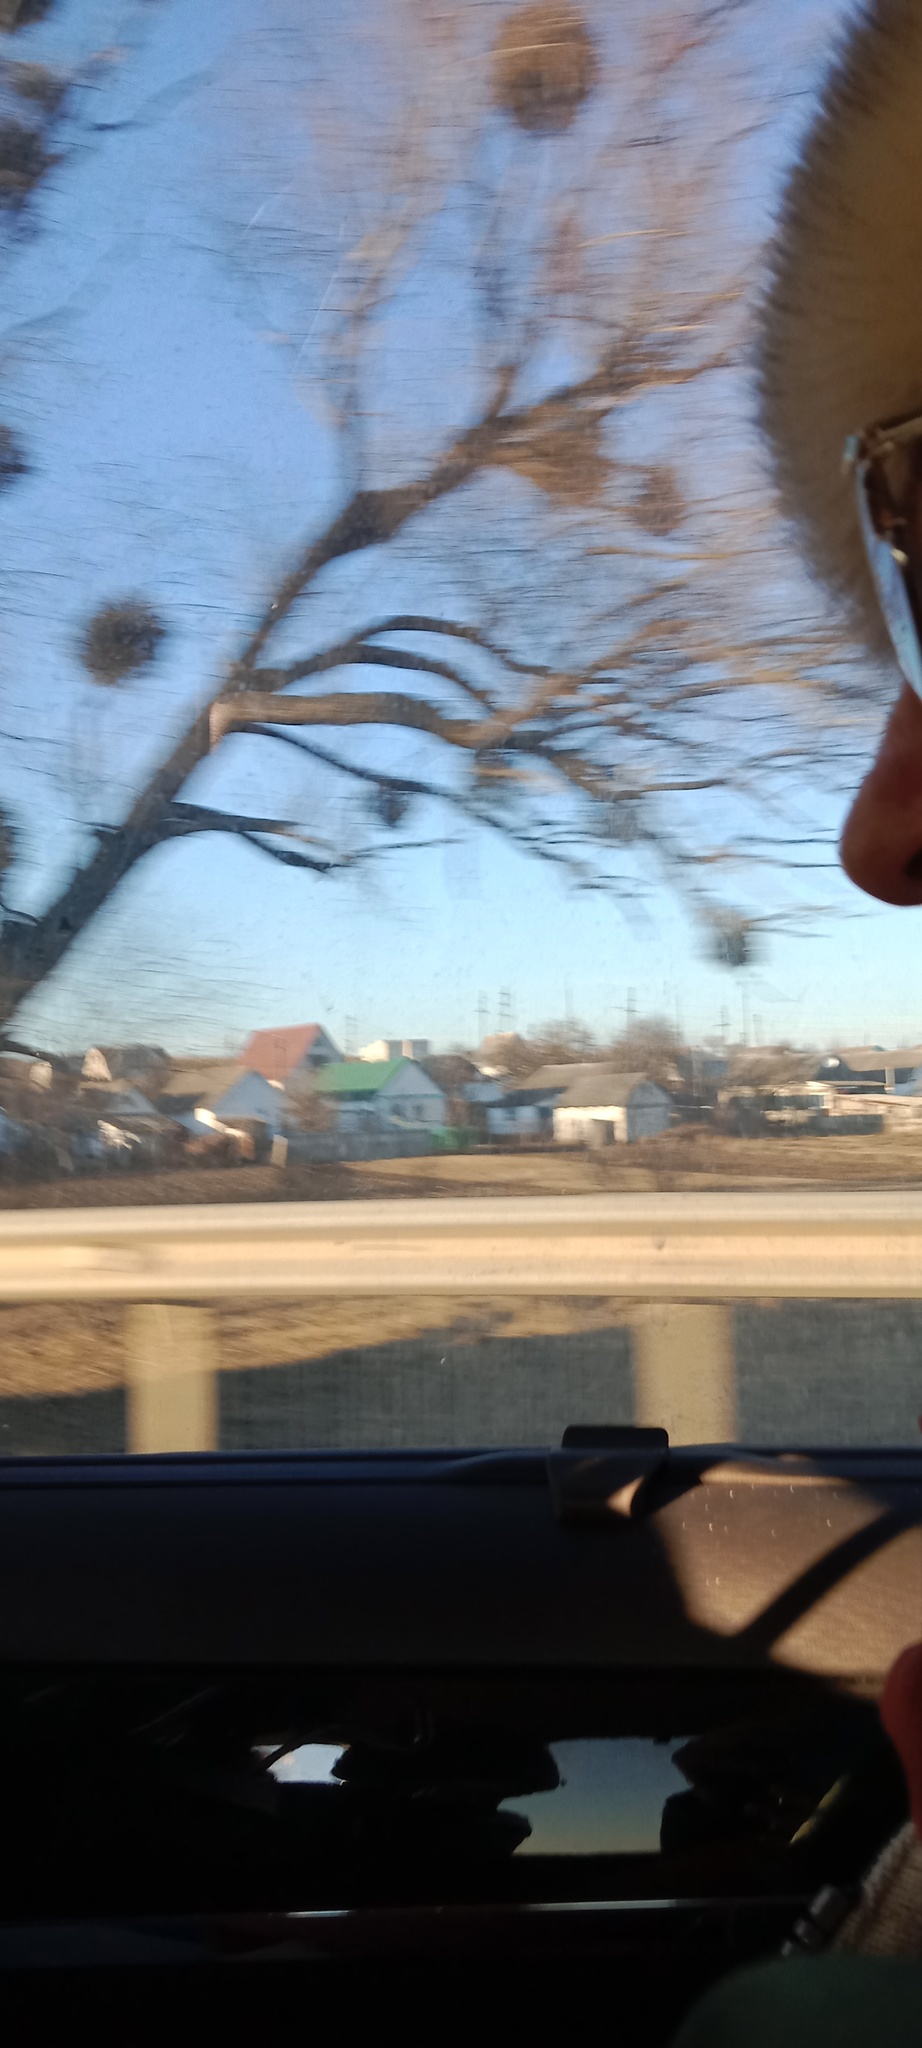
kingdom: Plantae
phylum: Tracheophyta
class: Magnoliopsida
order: Santalales
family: Viscaceae
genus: Viscum
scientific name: Viscum album
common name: Mistletoe
